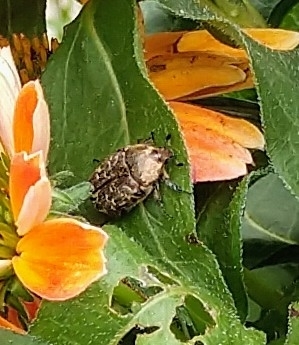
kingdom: Animalia
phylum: Arthropoda
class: Insecta
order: Coleoptera
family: Scarabaeidae
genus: Euphoria
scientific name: Euphoria sepulcralis
